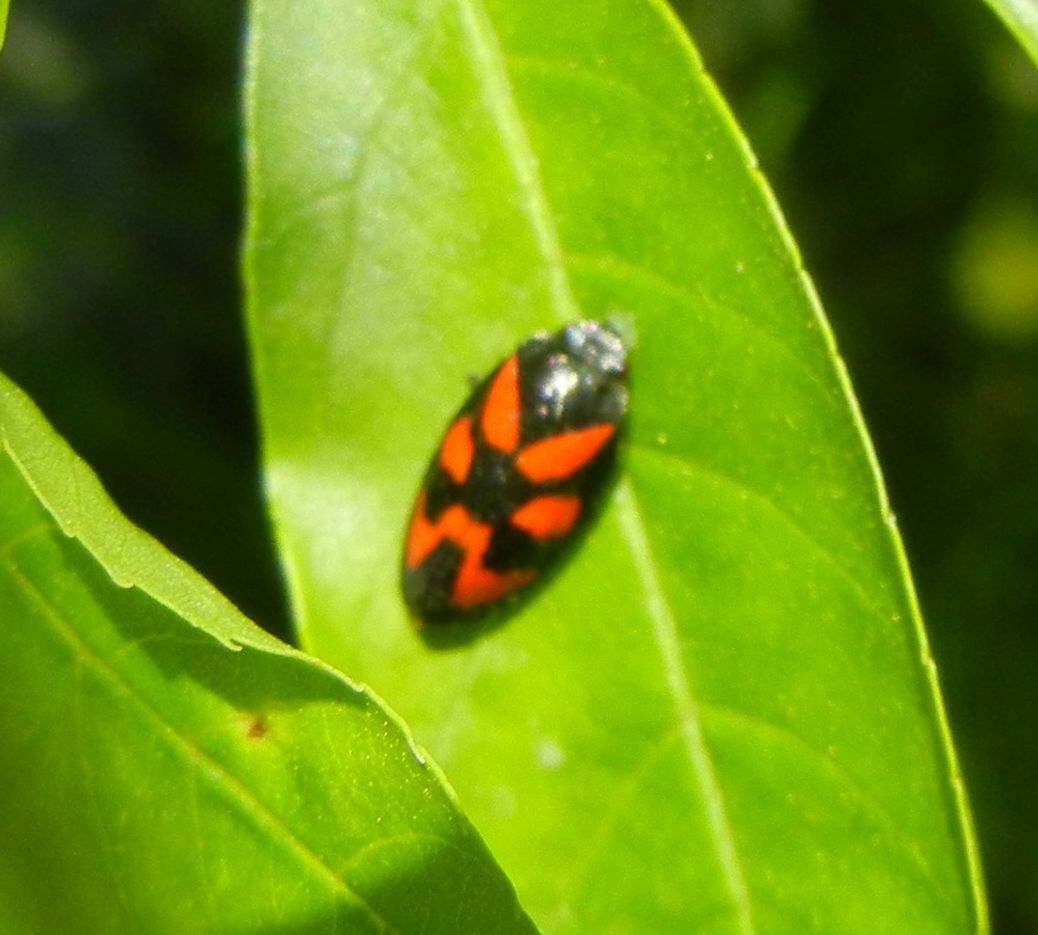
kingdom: Animalia
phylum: Arthropoda
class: Insecta
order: Hemiptera
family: Cercopidae
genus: Cercopis
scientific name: Cercopis vulnerata
